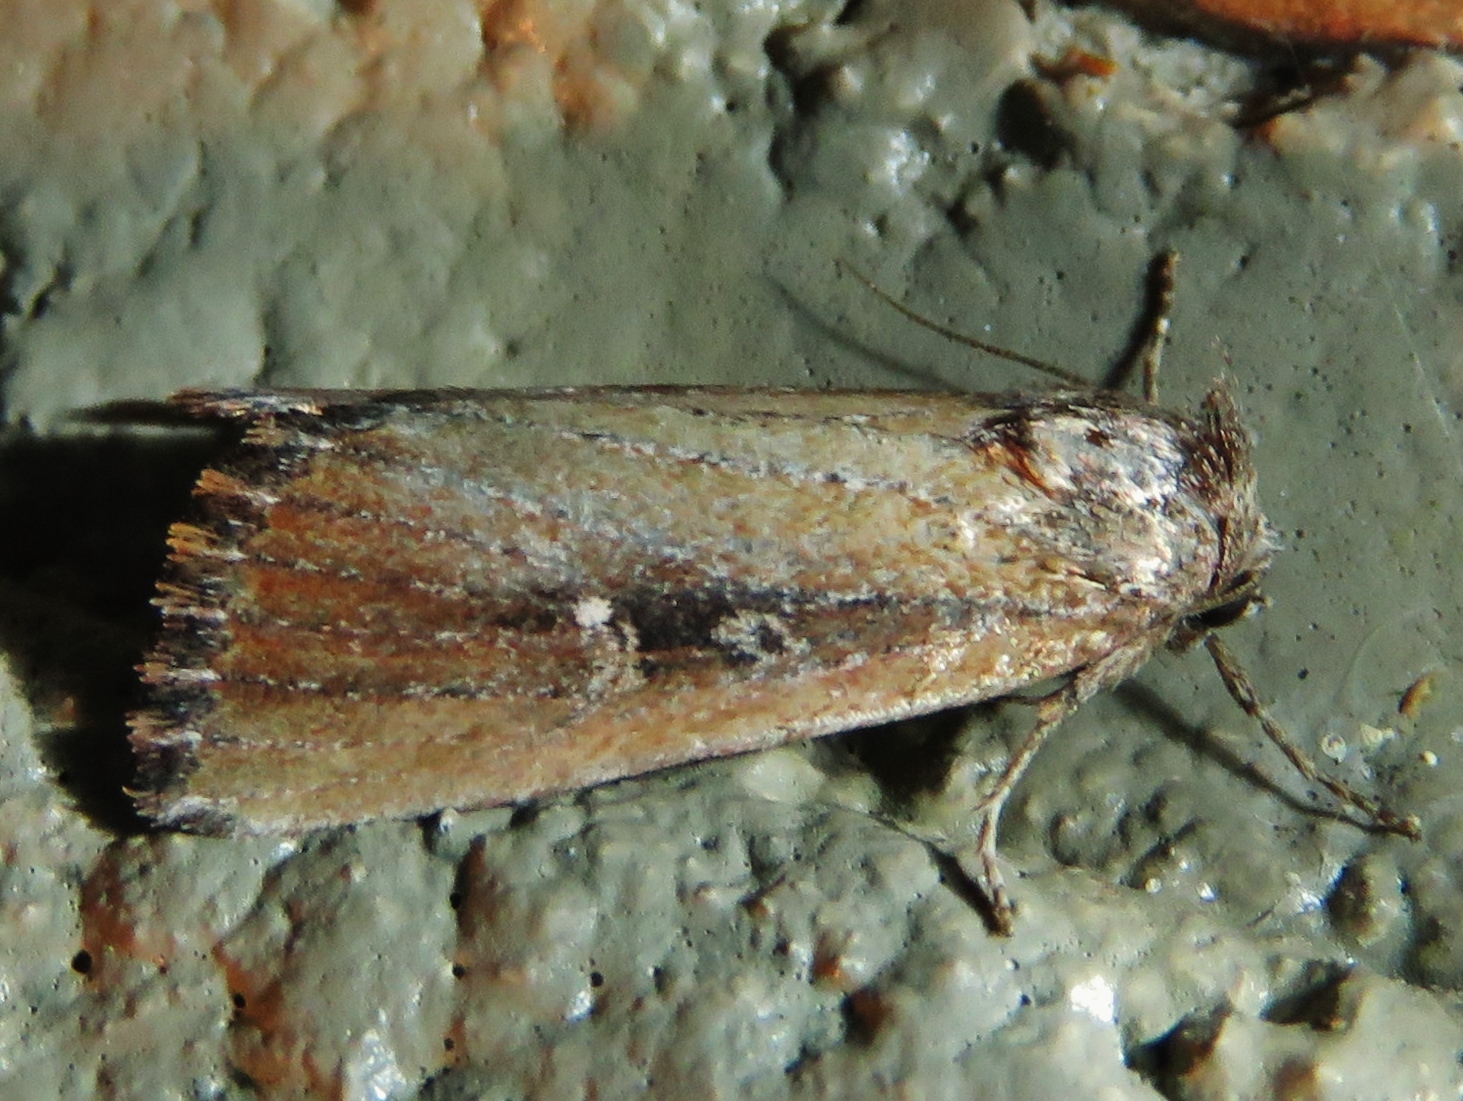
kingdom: Animalia
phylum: Arthropoda
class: Insecta
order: Lepidoptera
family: Noctuidae
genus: Condica
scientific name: Condica videns
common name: White-dotted groundling
